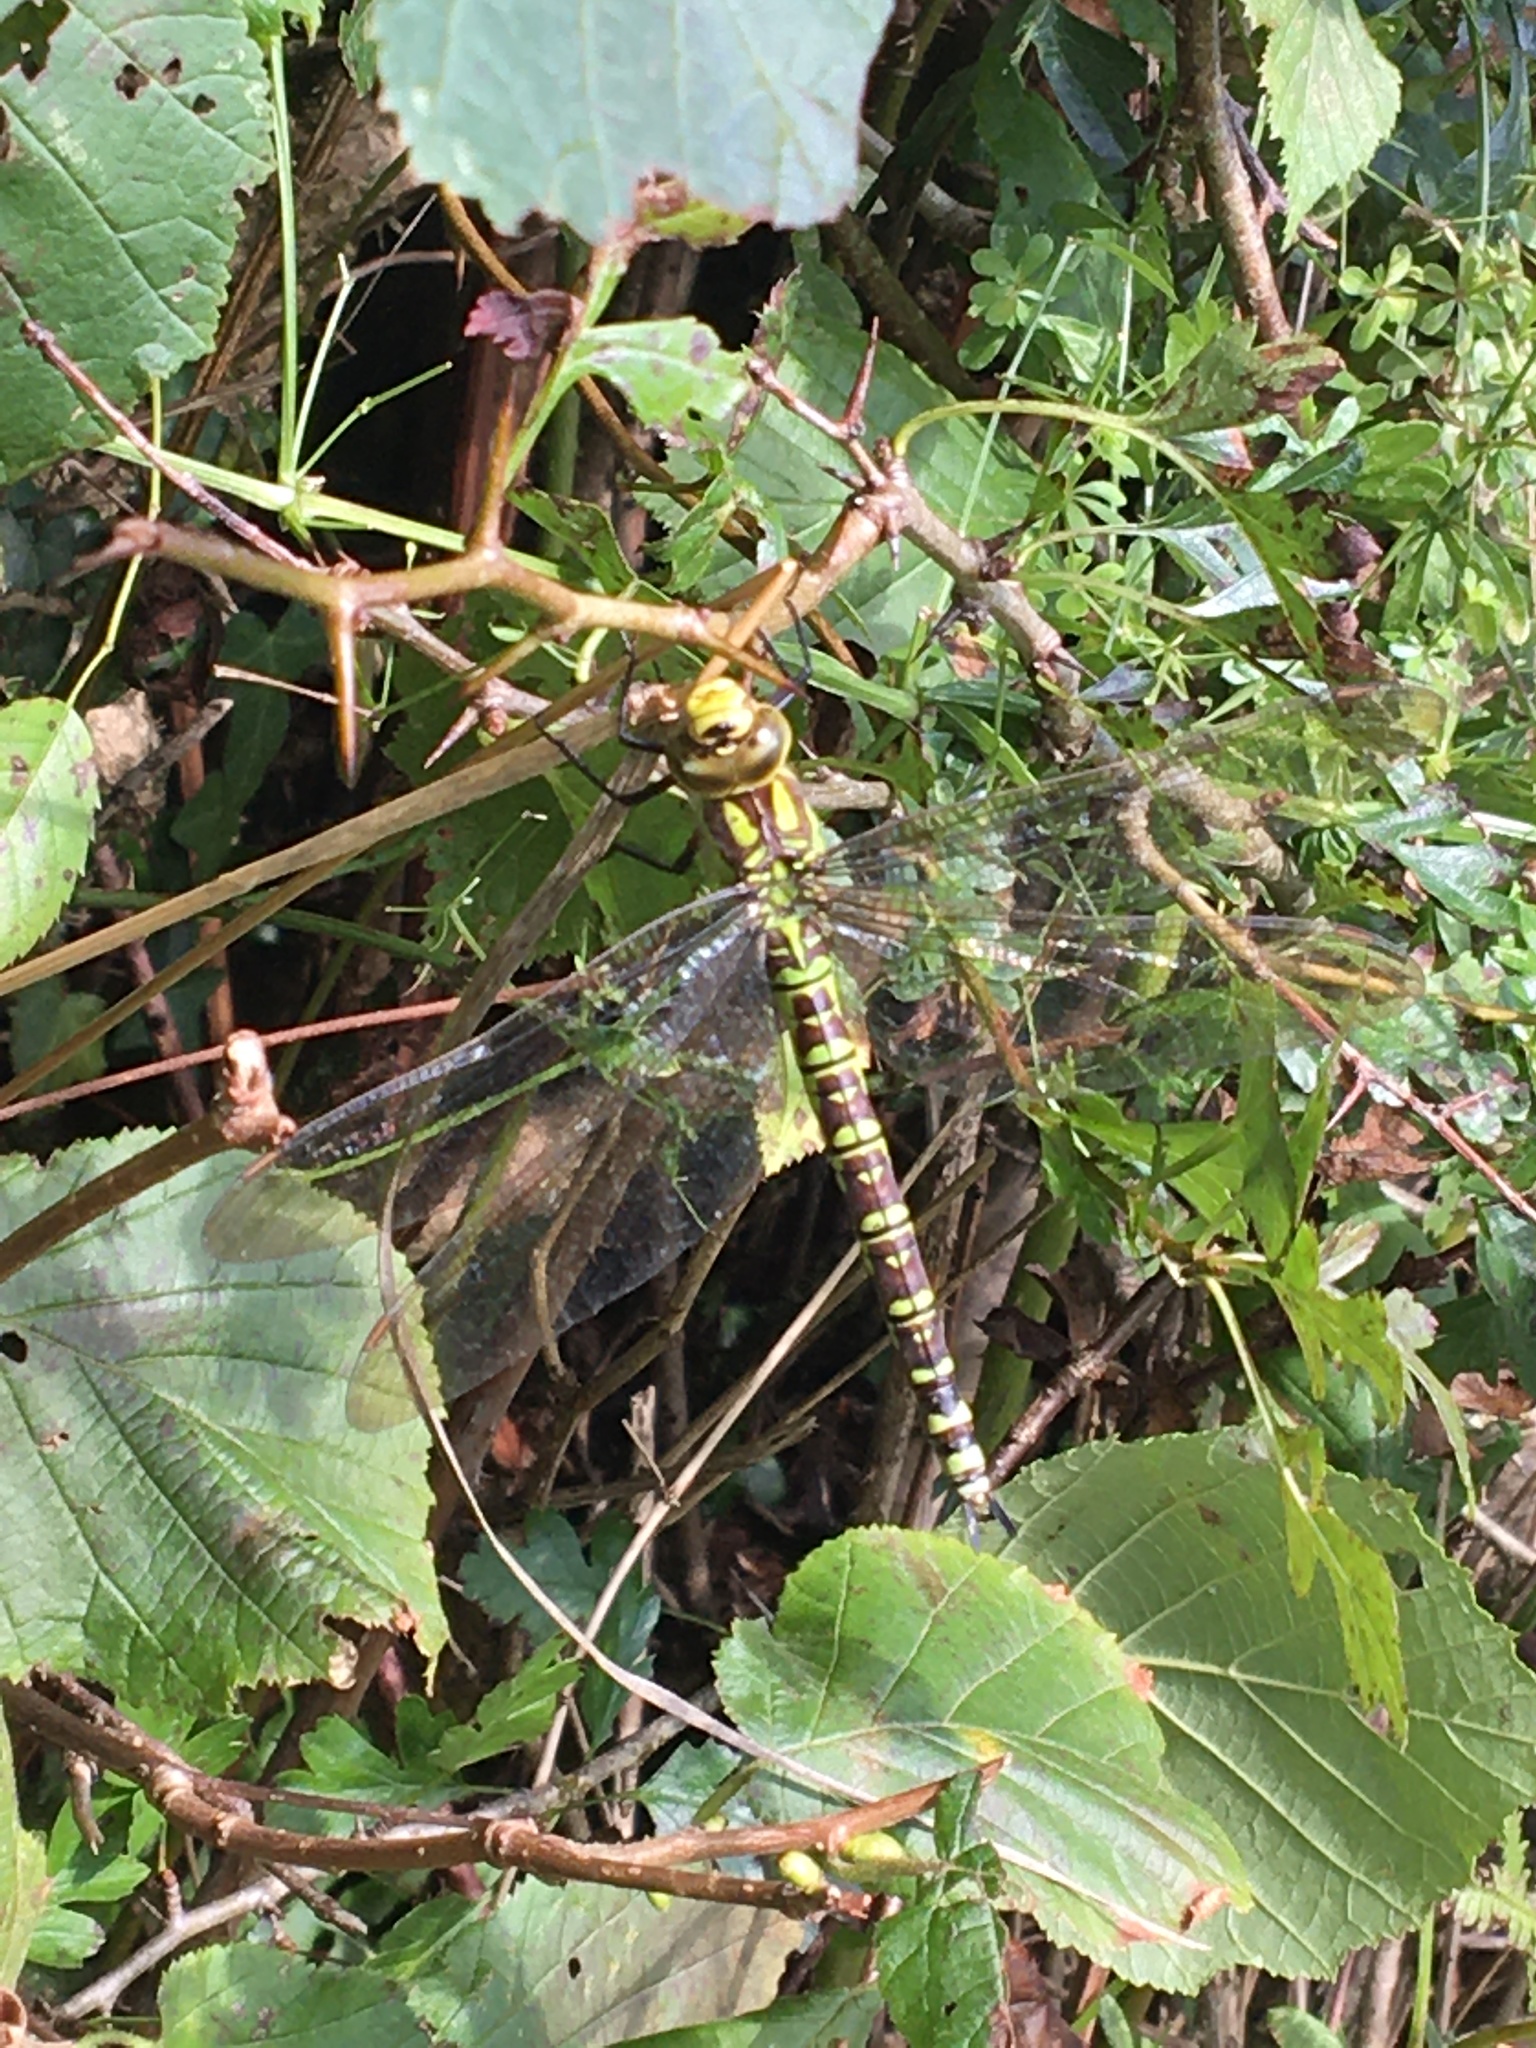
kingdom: Animalia
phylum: Arthropoda
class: Insecta
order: Odonata
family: Aeshnidae
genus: Aeshna
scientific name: Aeshna cyanea
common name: Southern hawker
